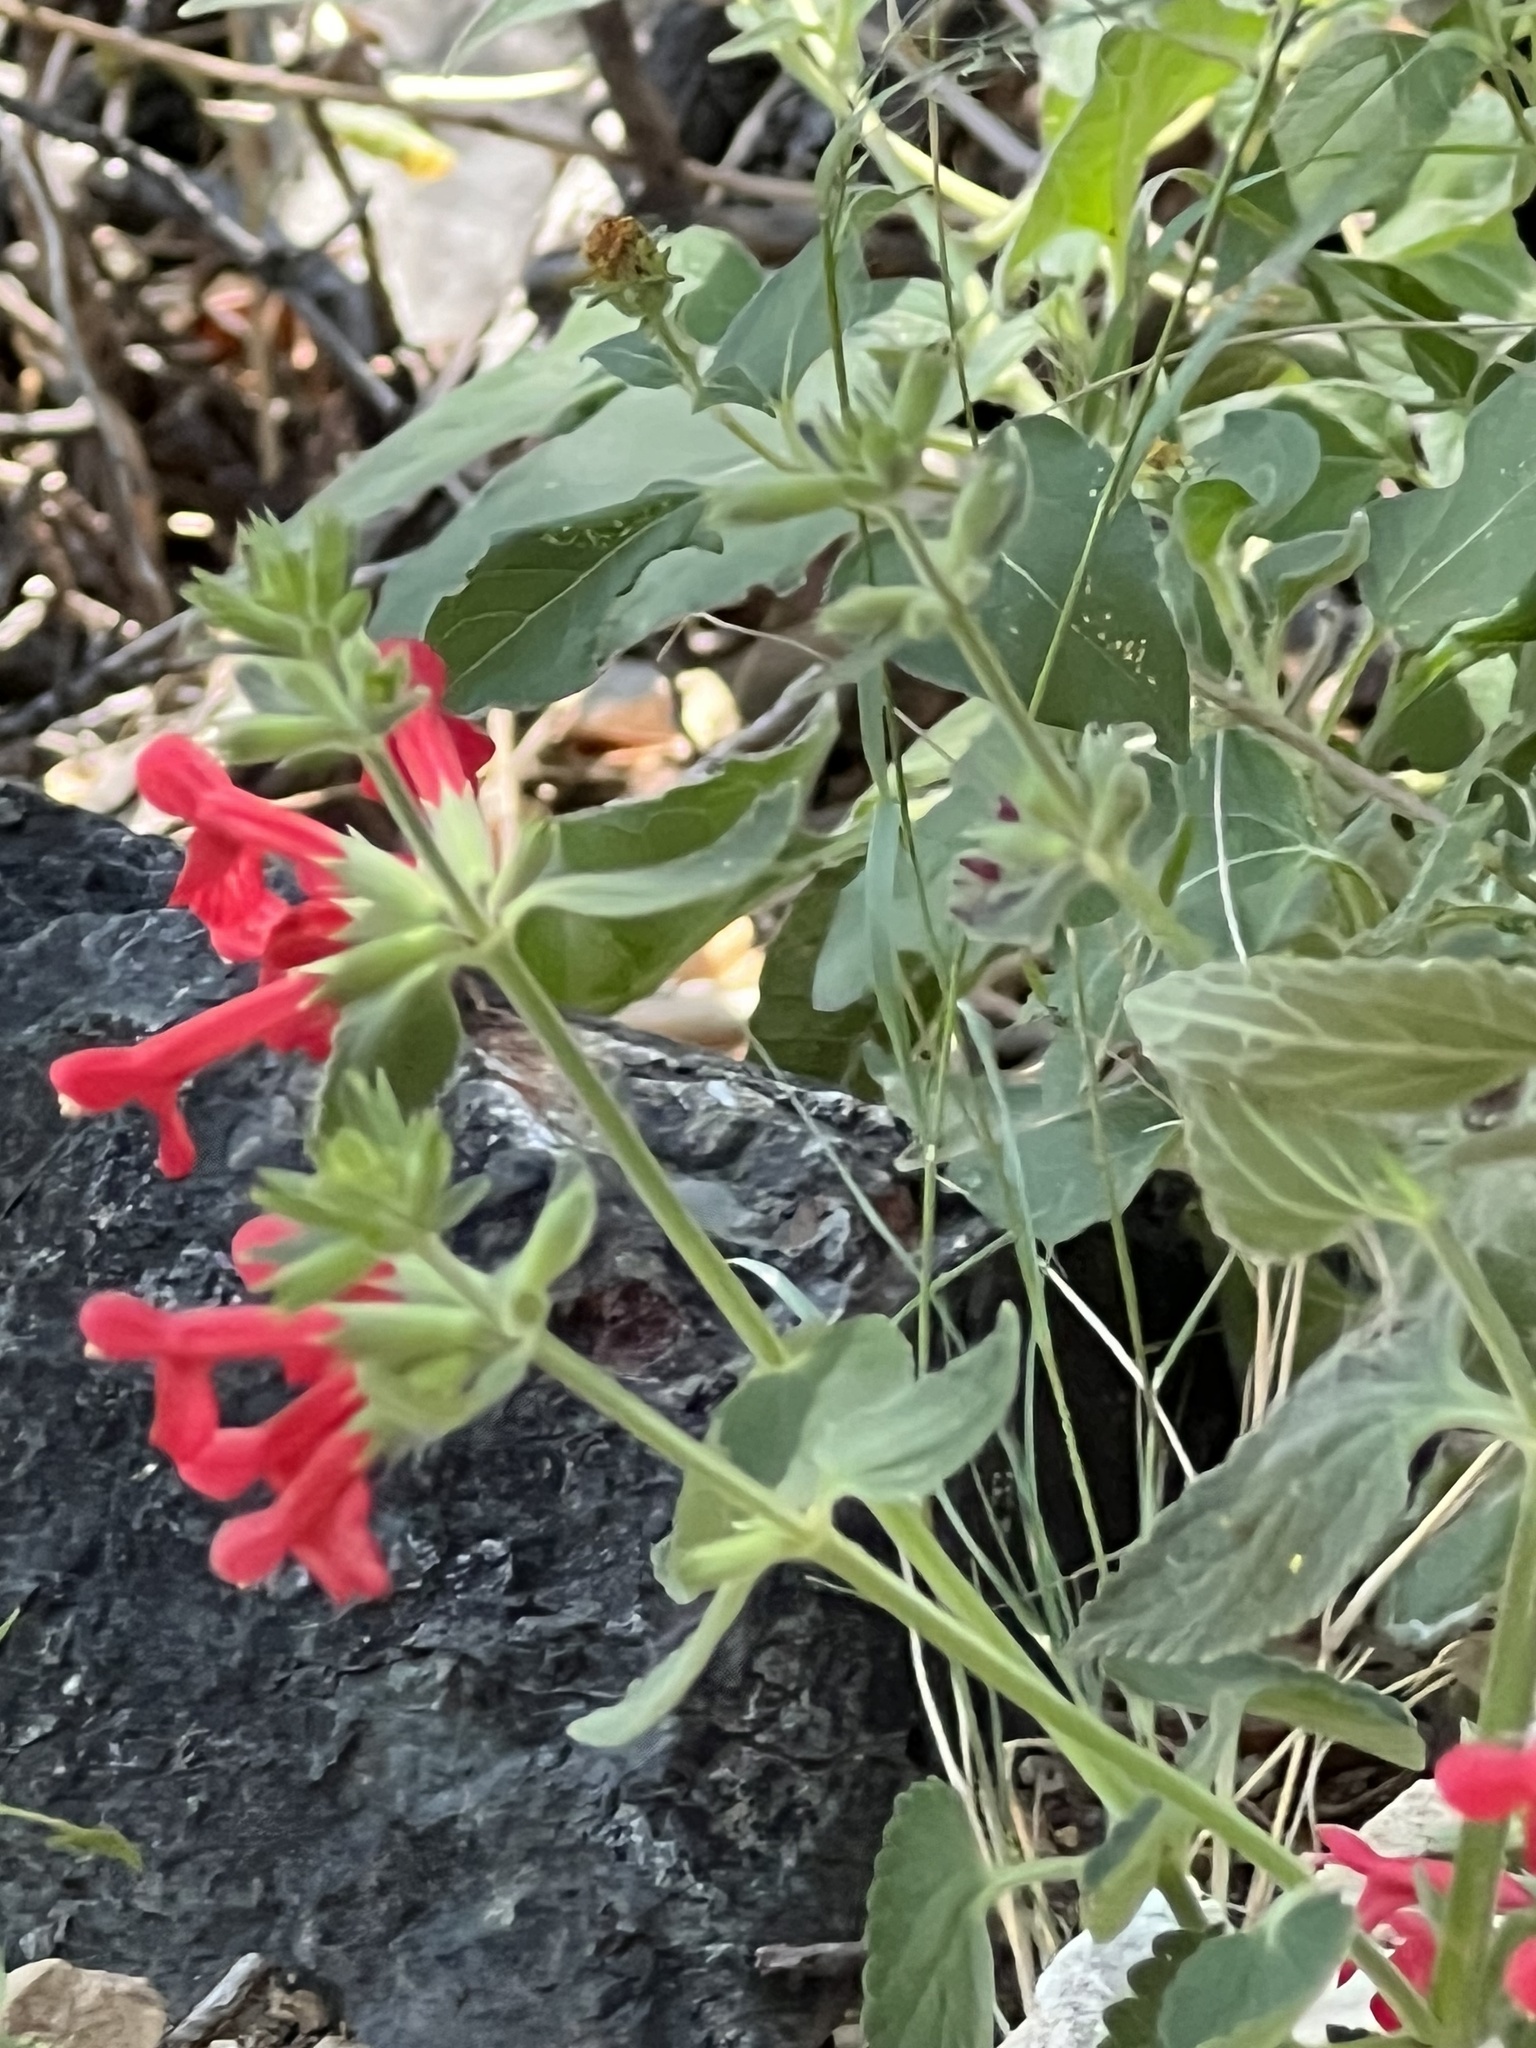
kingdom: Plantae
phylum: Tracheophyta
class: Magnoliopsida
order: Lamiales
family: Lamiaceae
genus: Stachys
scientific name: Stachys coccinea
